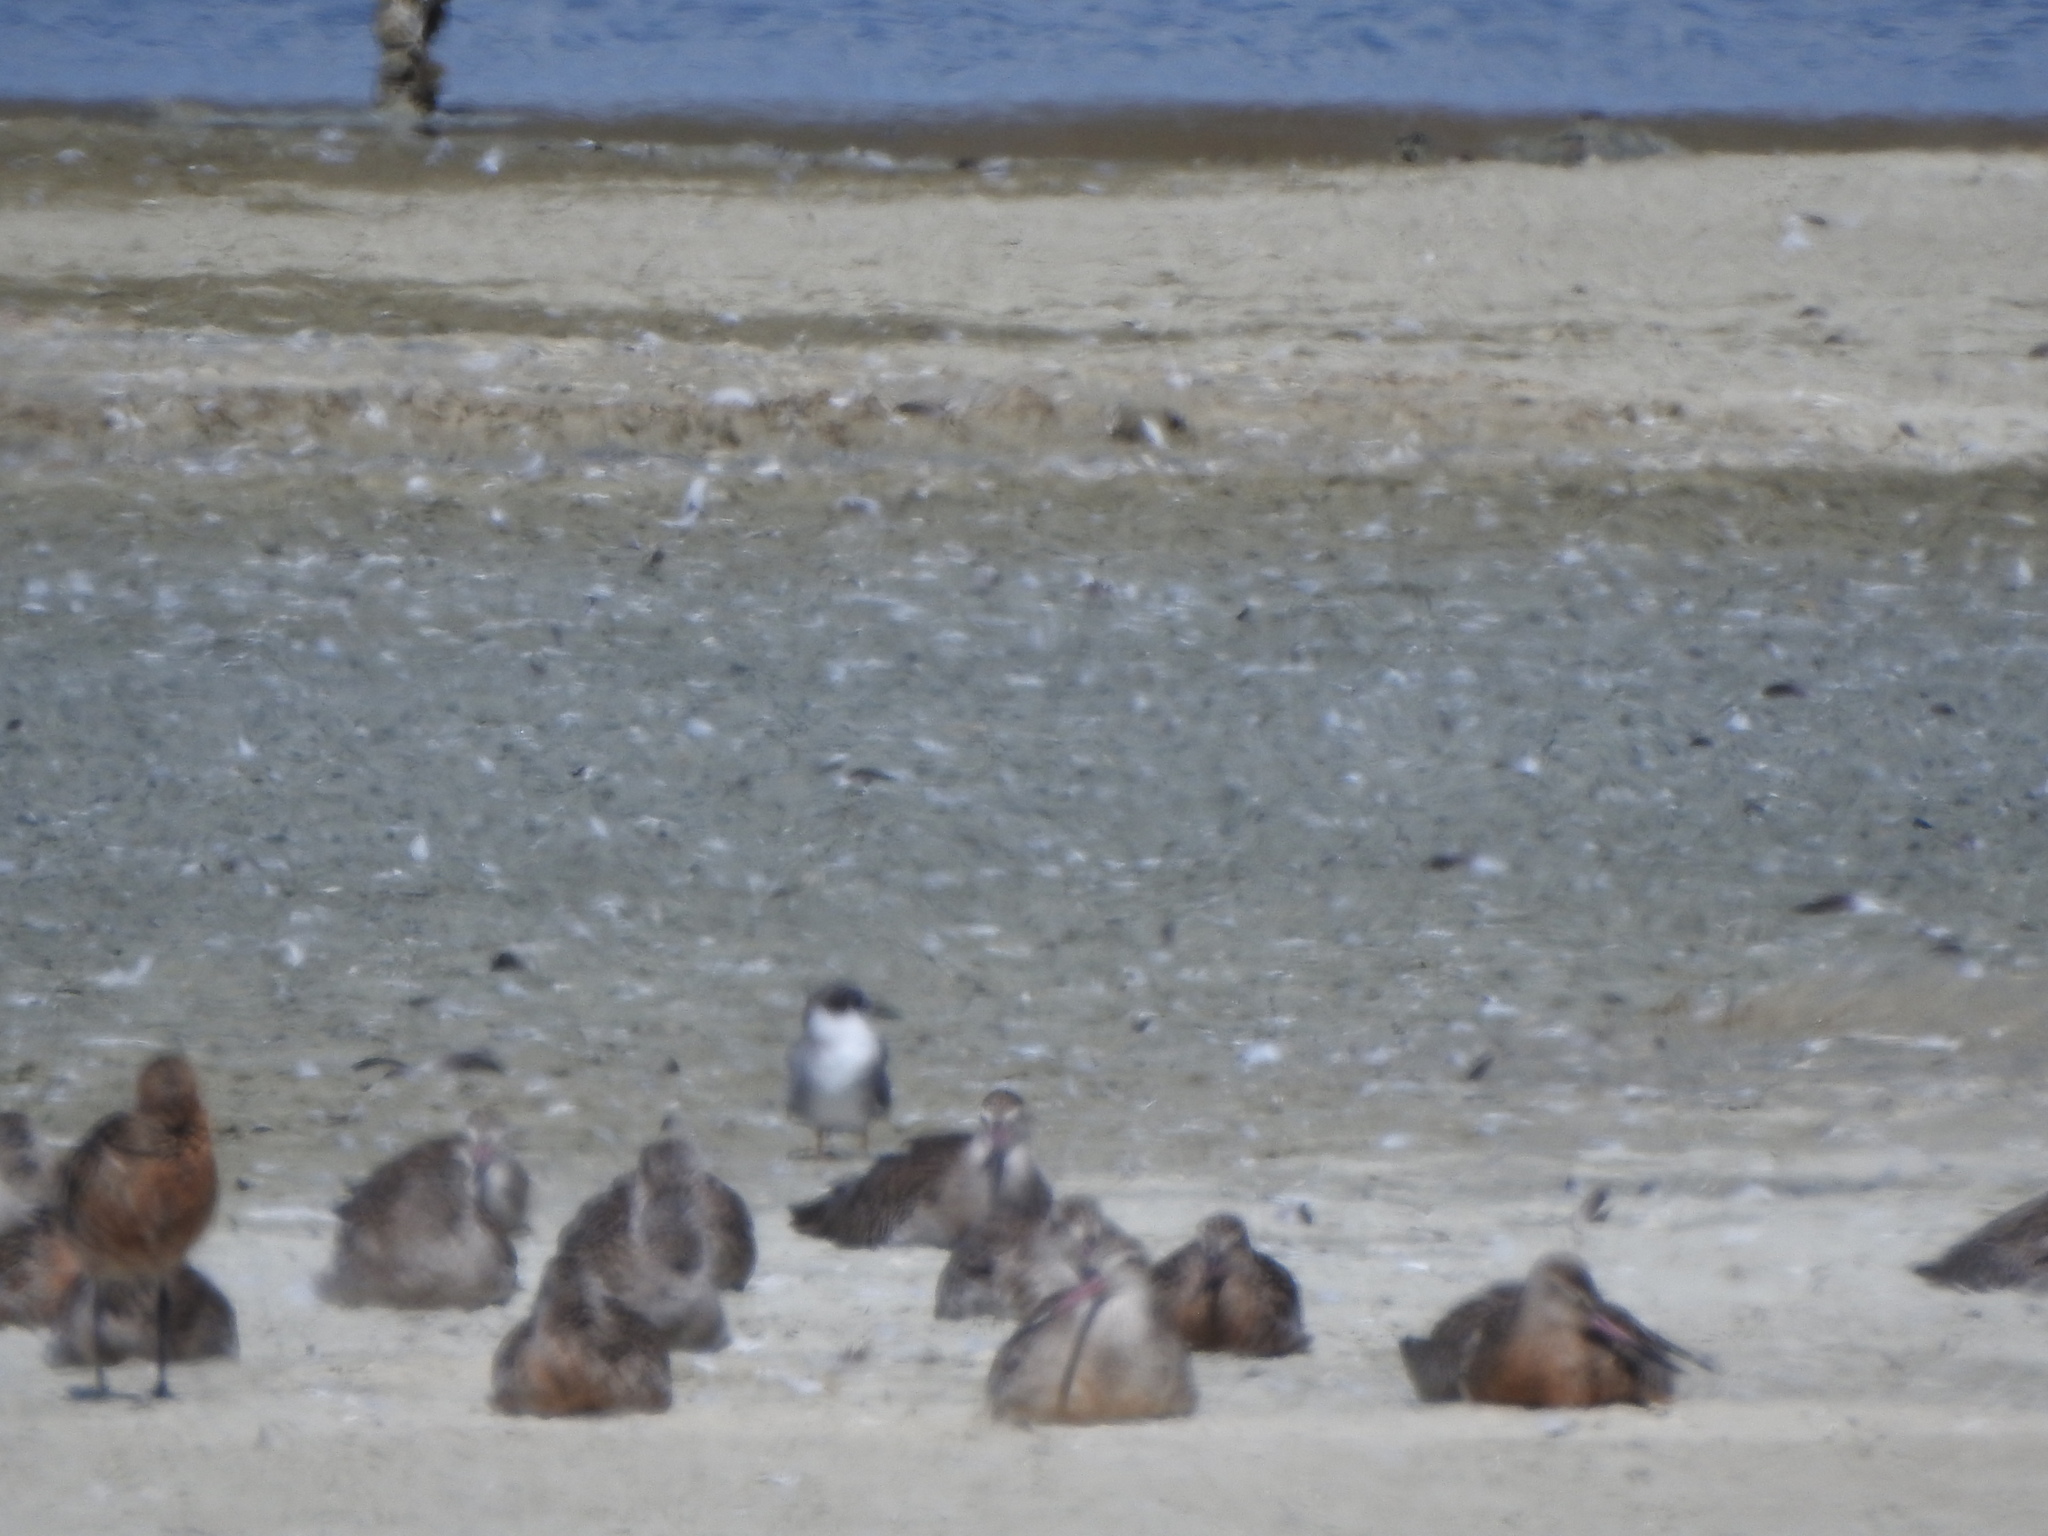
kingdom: Animalia
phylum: Chordata
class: Aves
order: Charadriiformes
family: Laridae
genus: Chlidonias
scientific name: Chlidonias albostriatus
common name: Black-fronted tern
